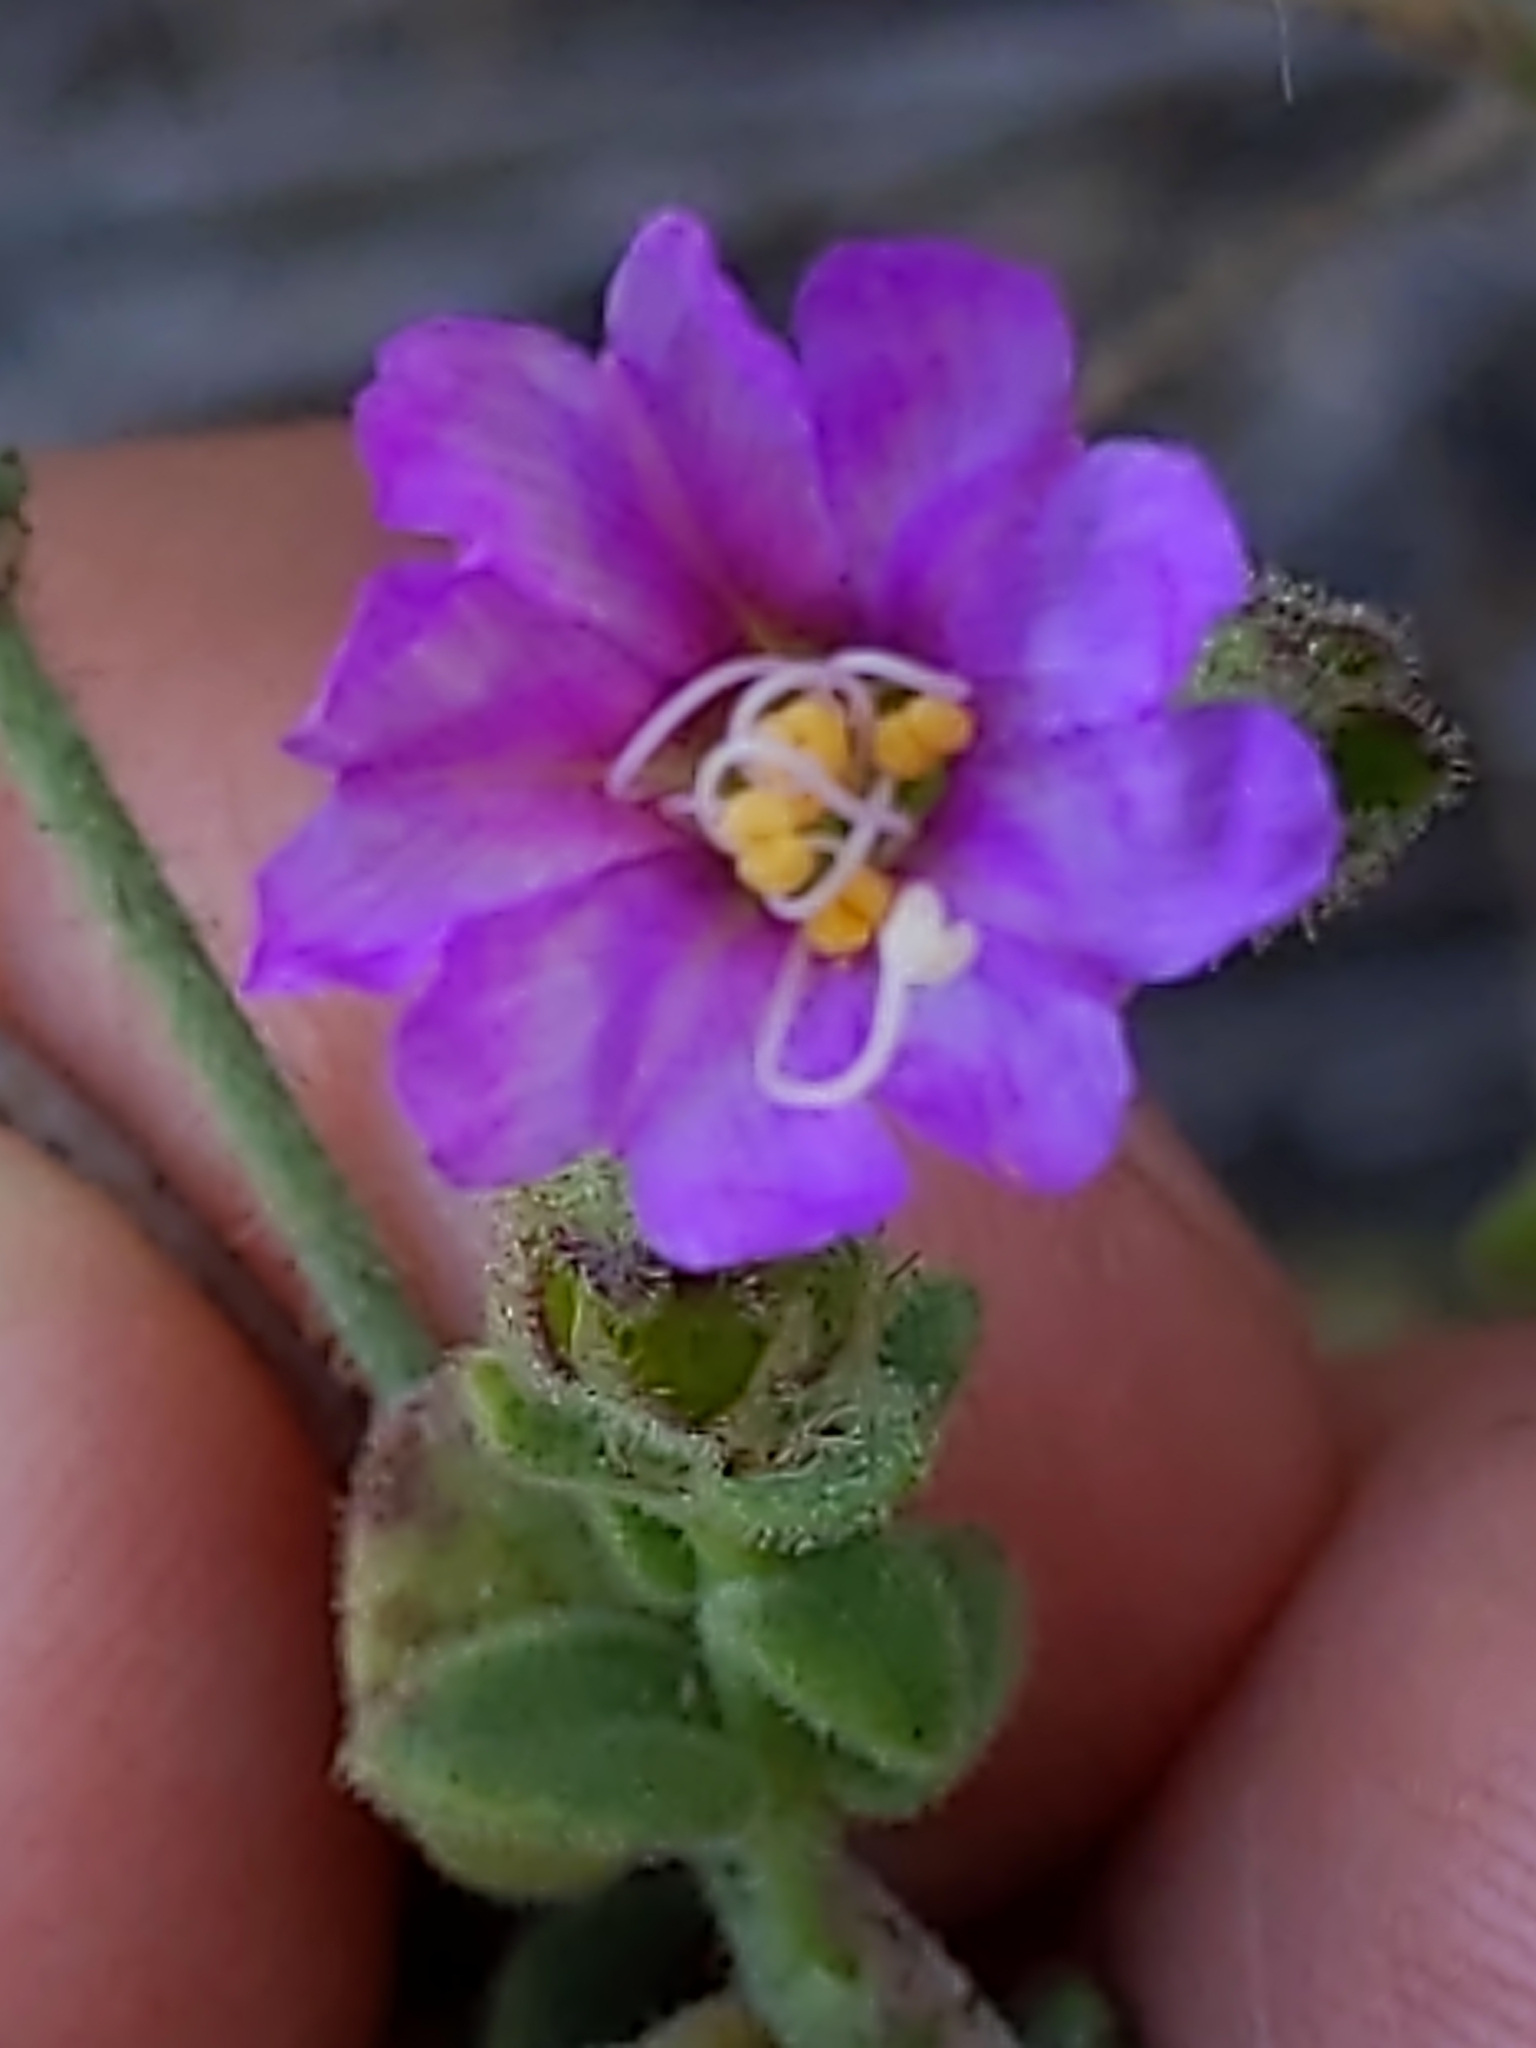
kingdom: Plantae
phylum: Tracheophyta
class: Magnoliopsida
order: Caryophyllales
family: Nyctaginaceae
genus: Mirabilis
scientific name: Mirabilis laevis
